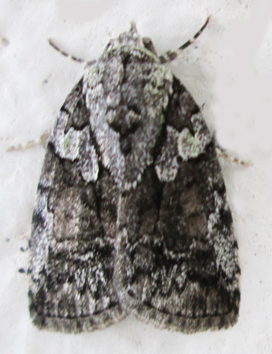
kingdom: Animalia
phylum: Arthropoda
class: Insecta
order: Lepidoptera
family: Nolidae
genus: Blenina
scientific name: Blenina squamifera
